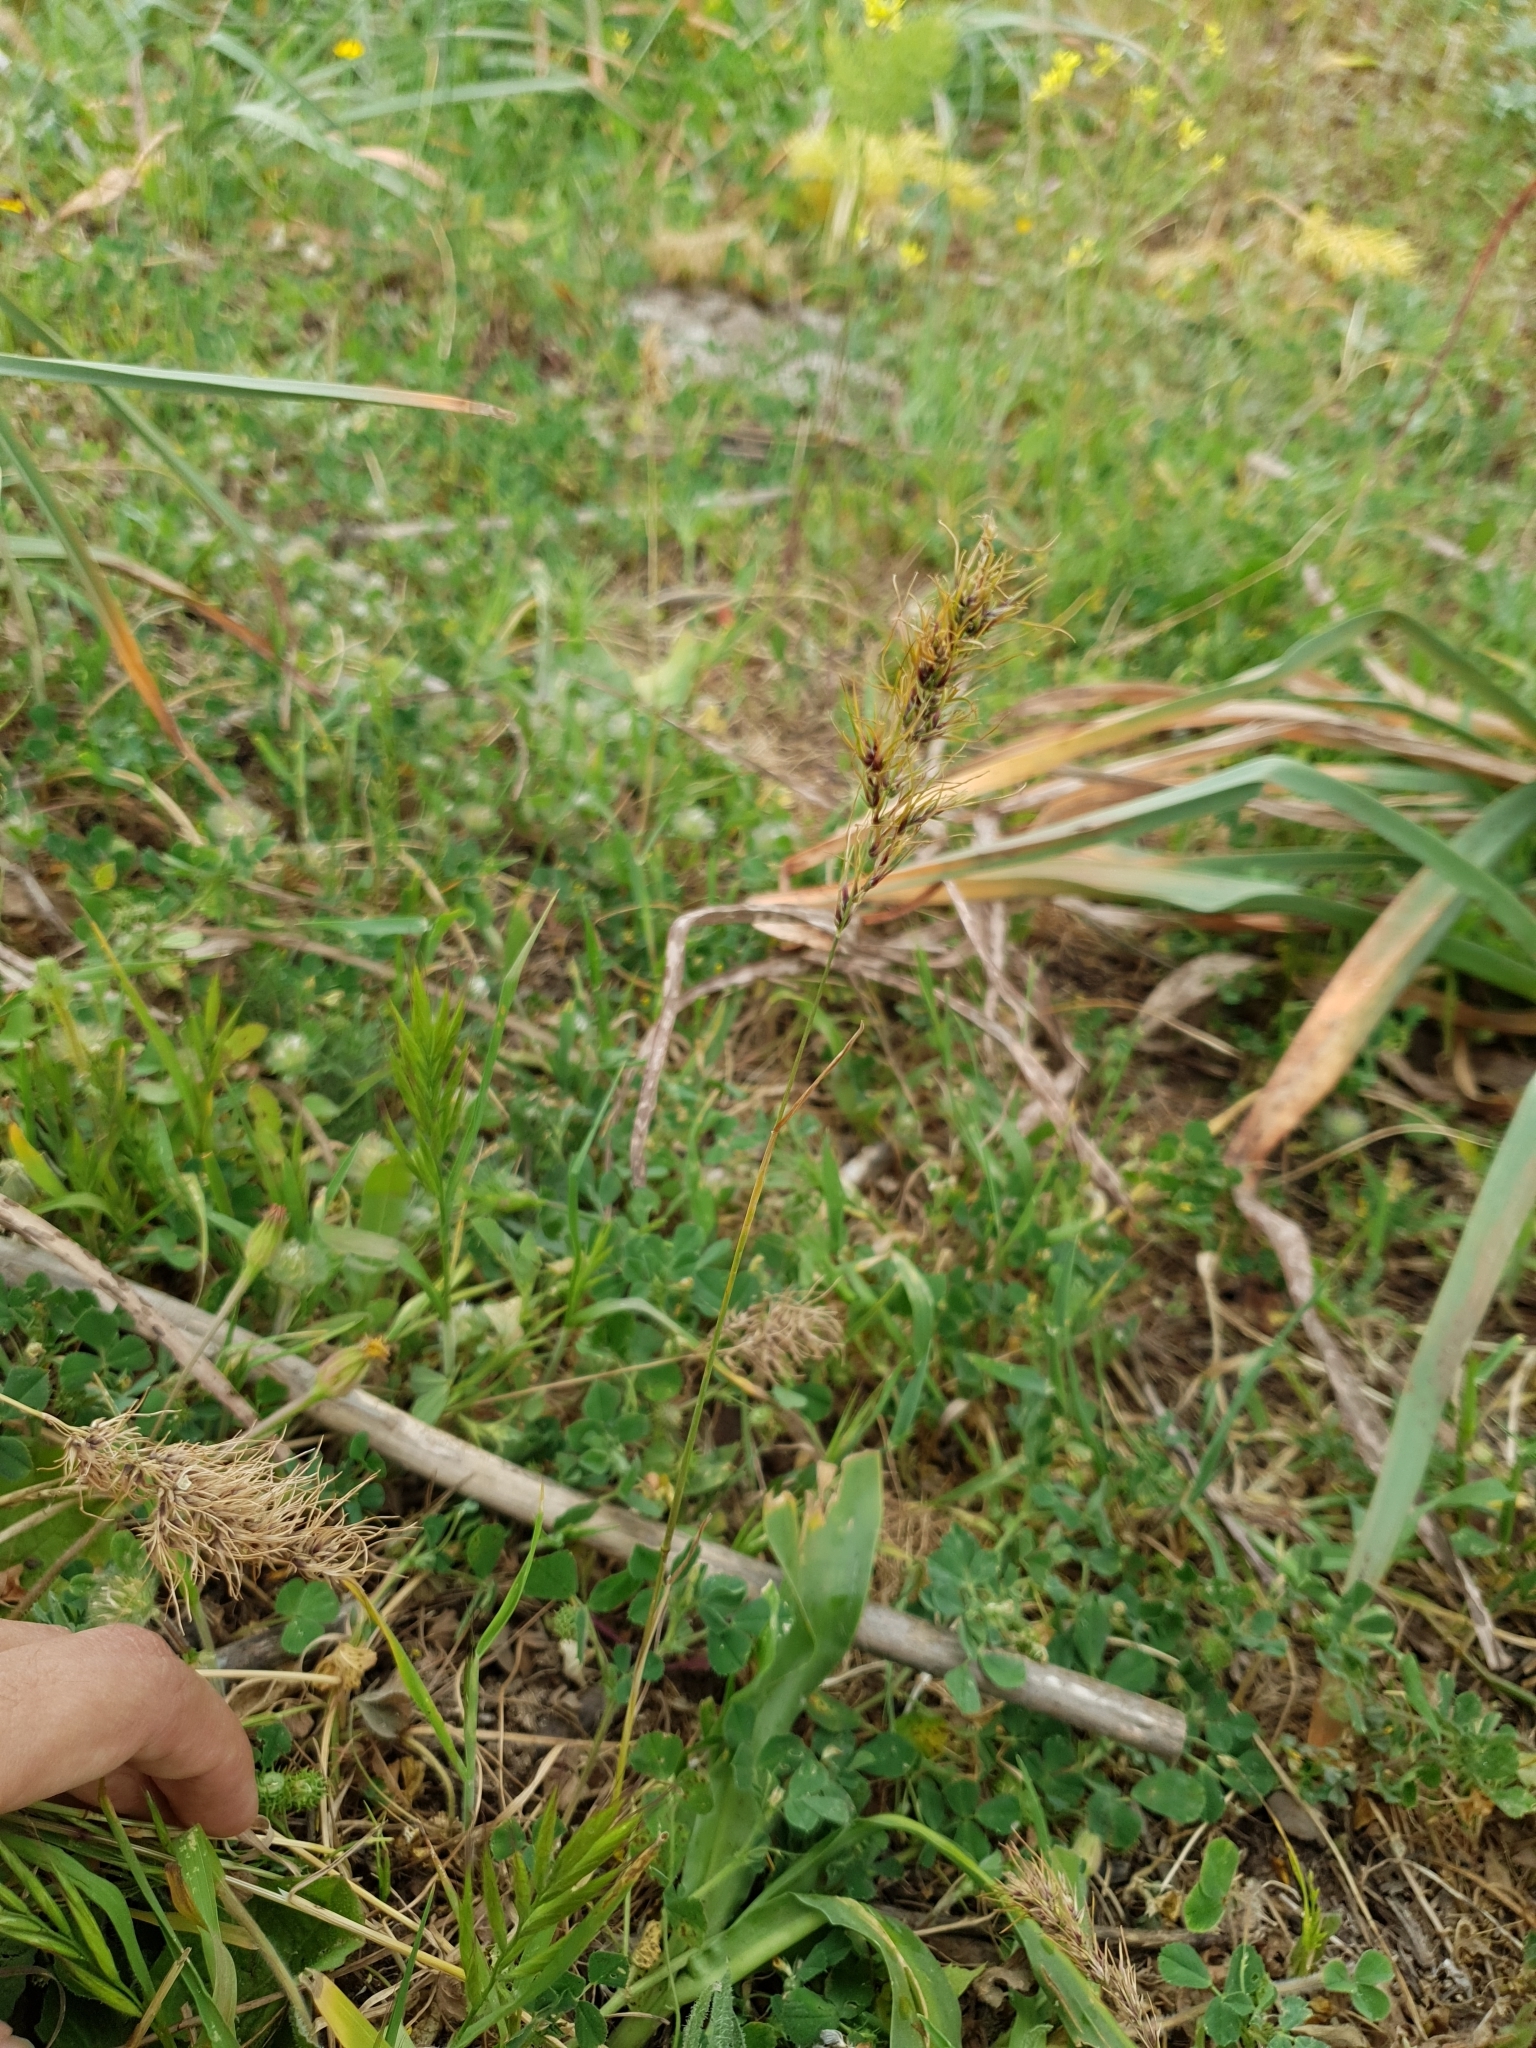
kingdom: Plantae
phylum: Tracheophyta
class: Liliopsida
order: Poales
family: Poaceae
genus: Poa
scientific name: Poa bulbosa
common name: Bulbous bluegrass
